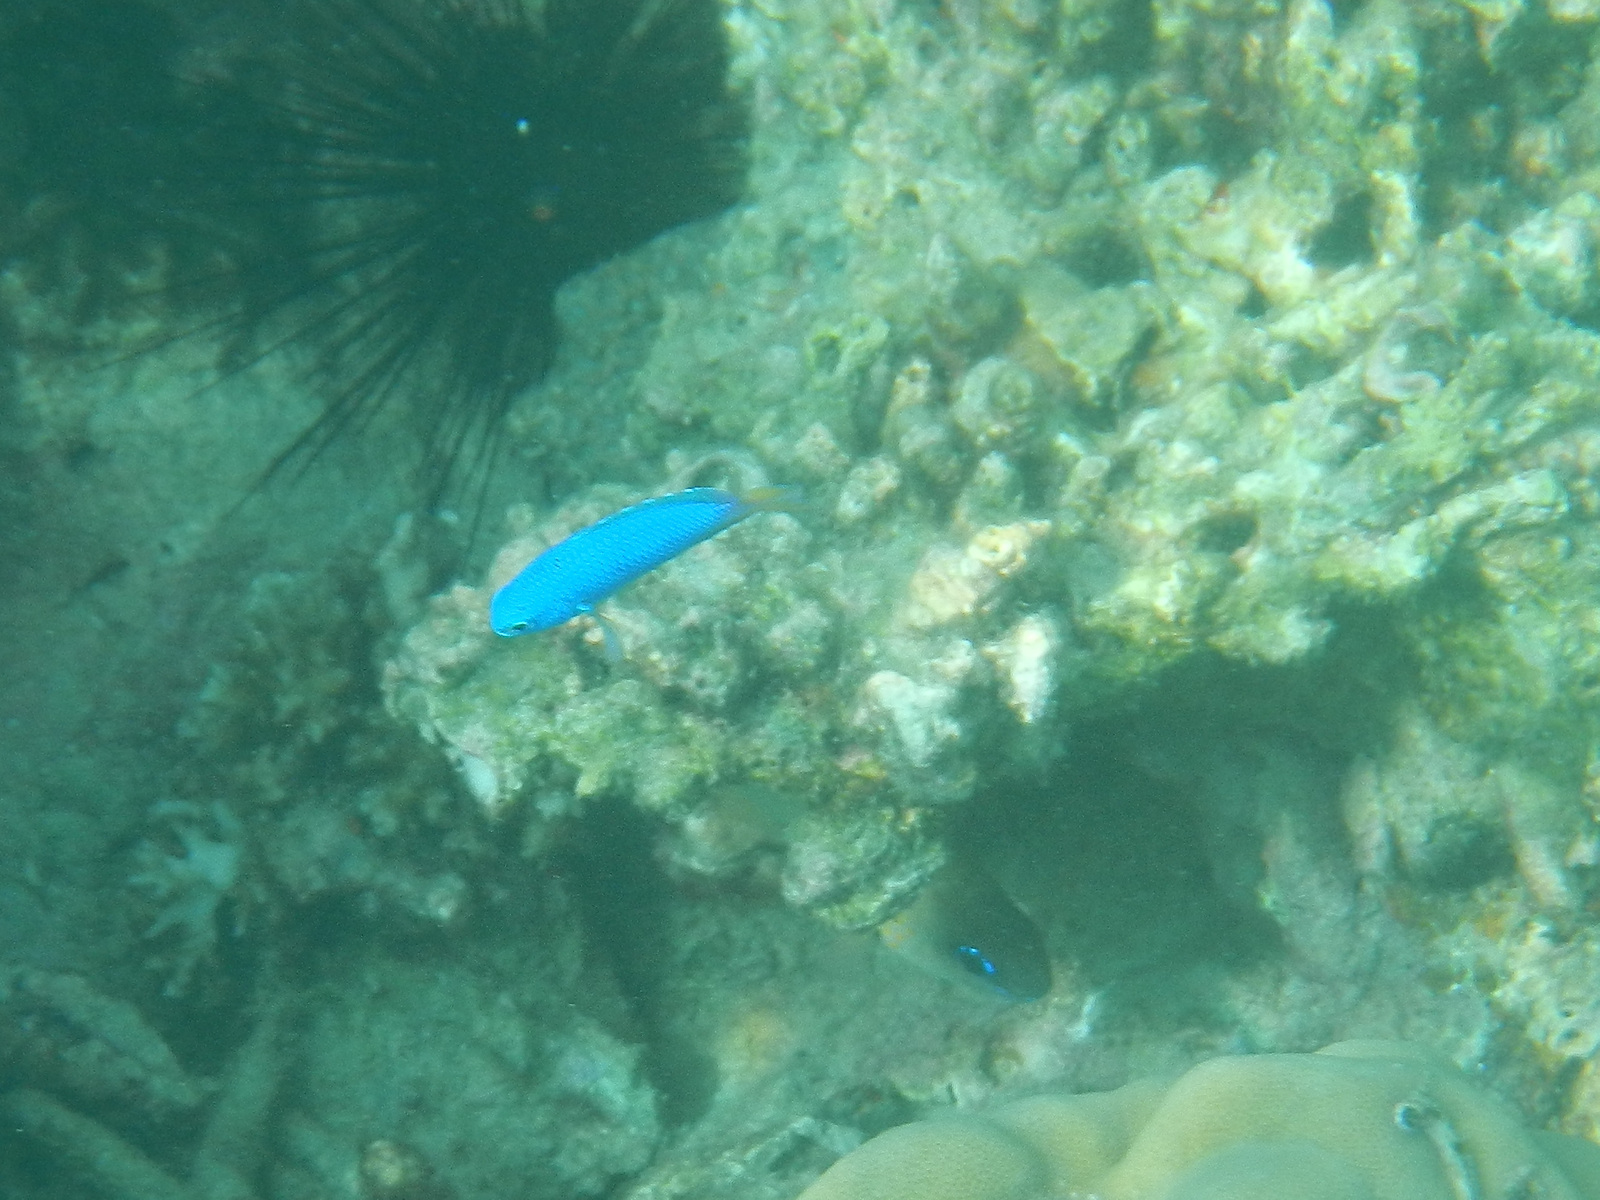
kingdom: Animalia
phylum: Chordata
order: Perciformes
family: Pomacentridae
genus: Pomacentrus
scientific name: Pomacentrus coelestis
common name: Neon damsel
